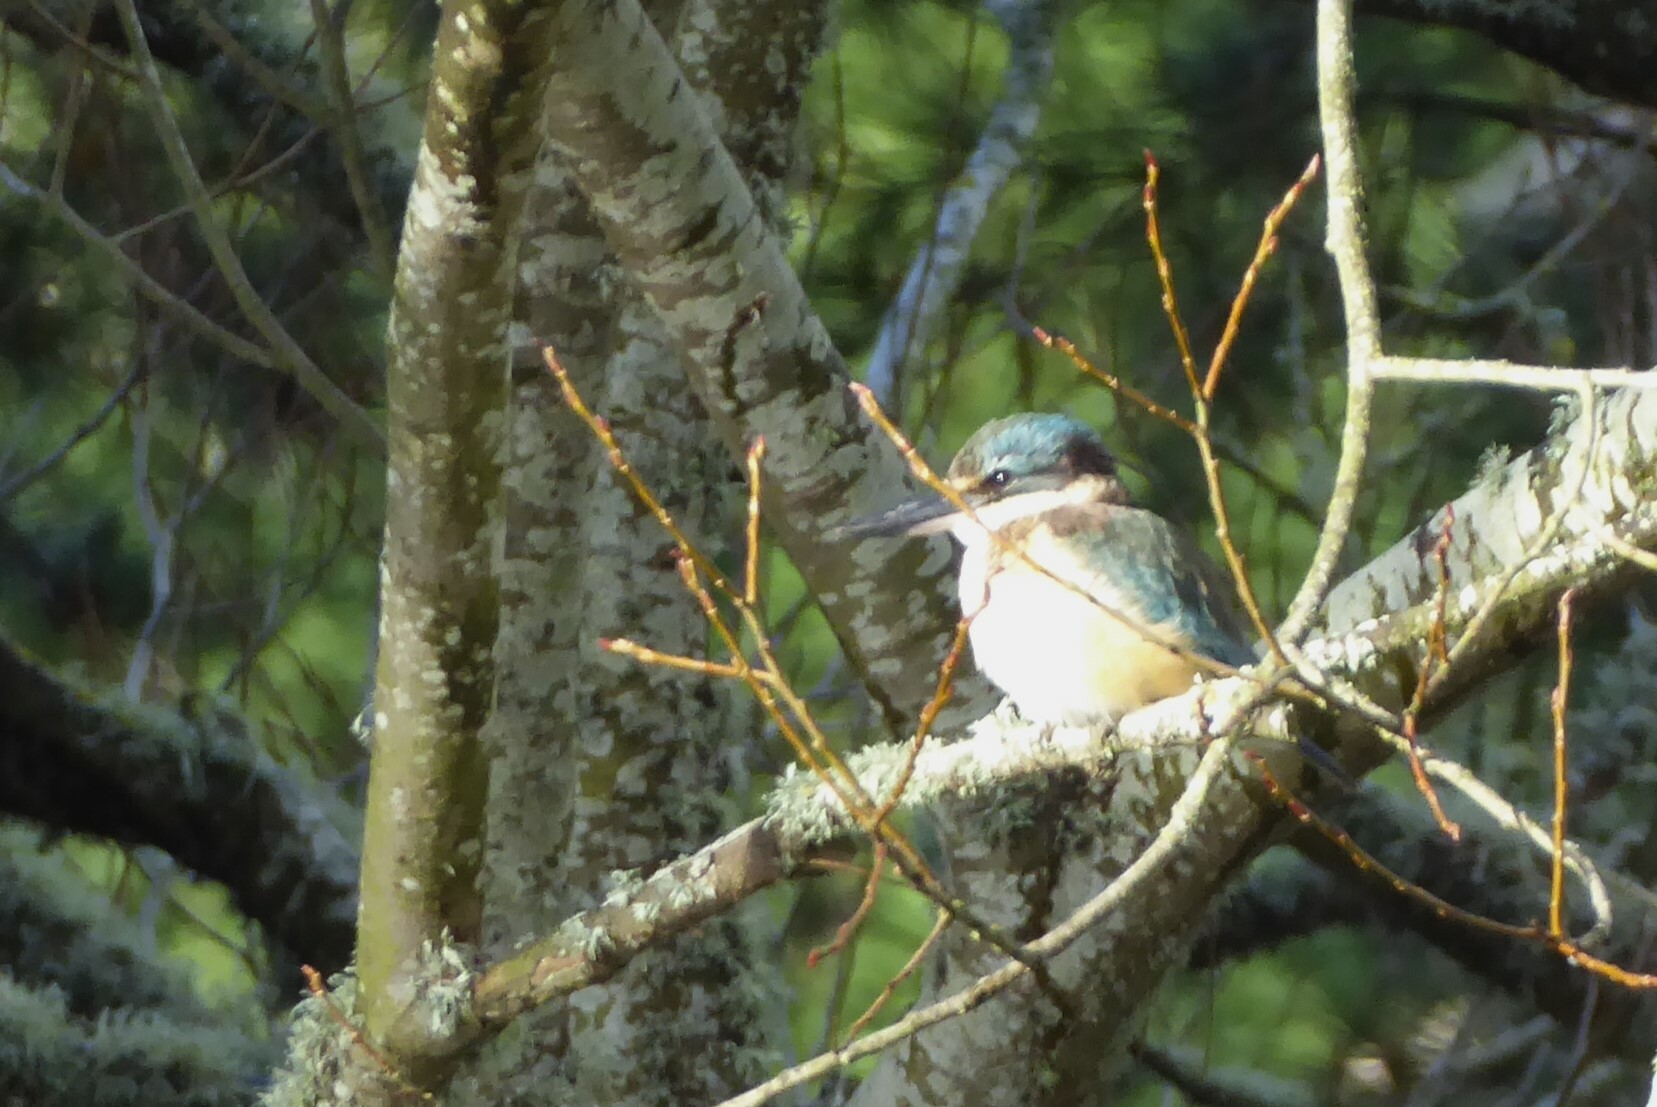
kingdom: Animalia
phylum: Chordata
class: Aves
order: Coraciiformes
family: Alcedinidae
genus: Todiramphus
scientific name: Todiramphus sanctus
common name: Sacred kingfisher
